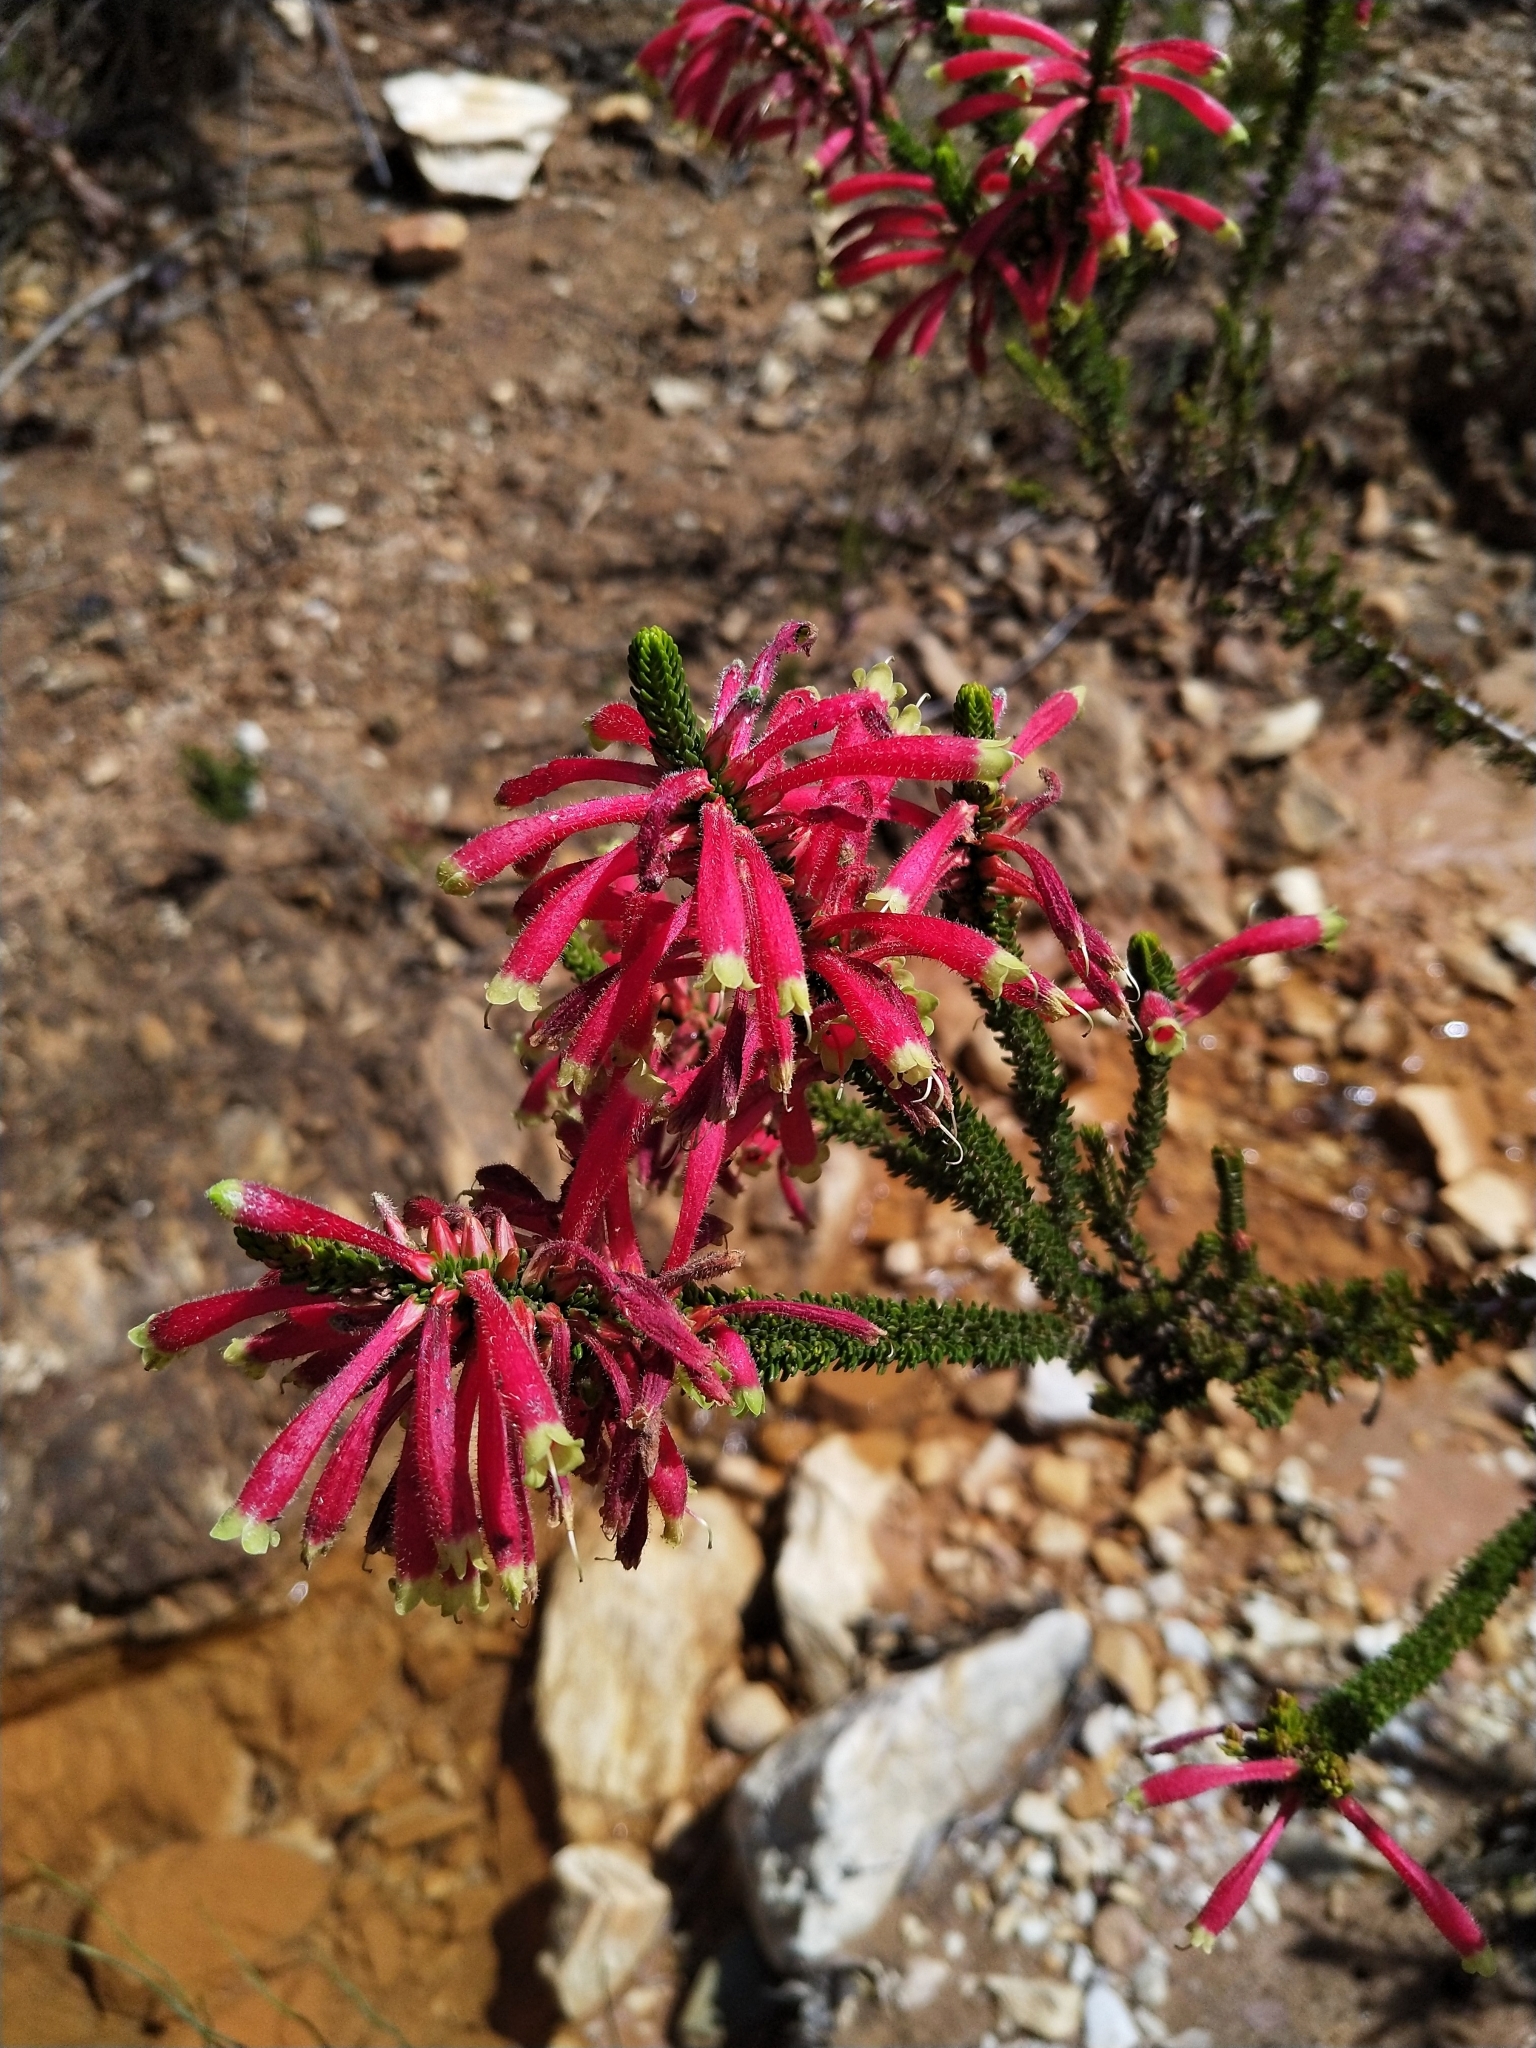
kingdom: Plantae
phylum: Tracheophyta
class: Magnoliopsida
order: Ericales
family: Ericaceae
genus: Erica
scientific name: Erica densifolia
